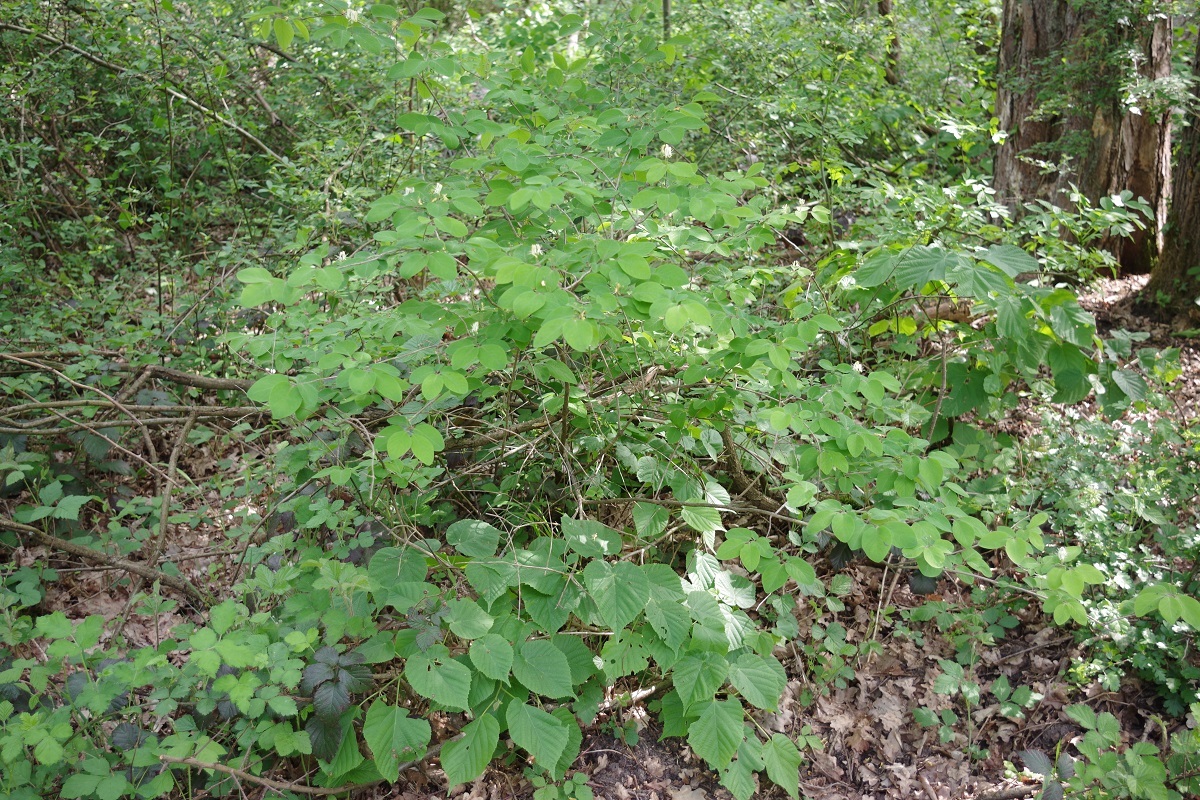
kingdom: Plantae
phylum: Tracheophyta
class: Magnoliopsida
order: Dipsacales
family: Caprifoliaceae
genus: Lonicera
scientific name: Lonicera xylosteum
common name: Fly honeysuckle
